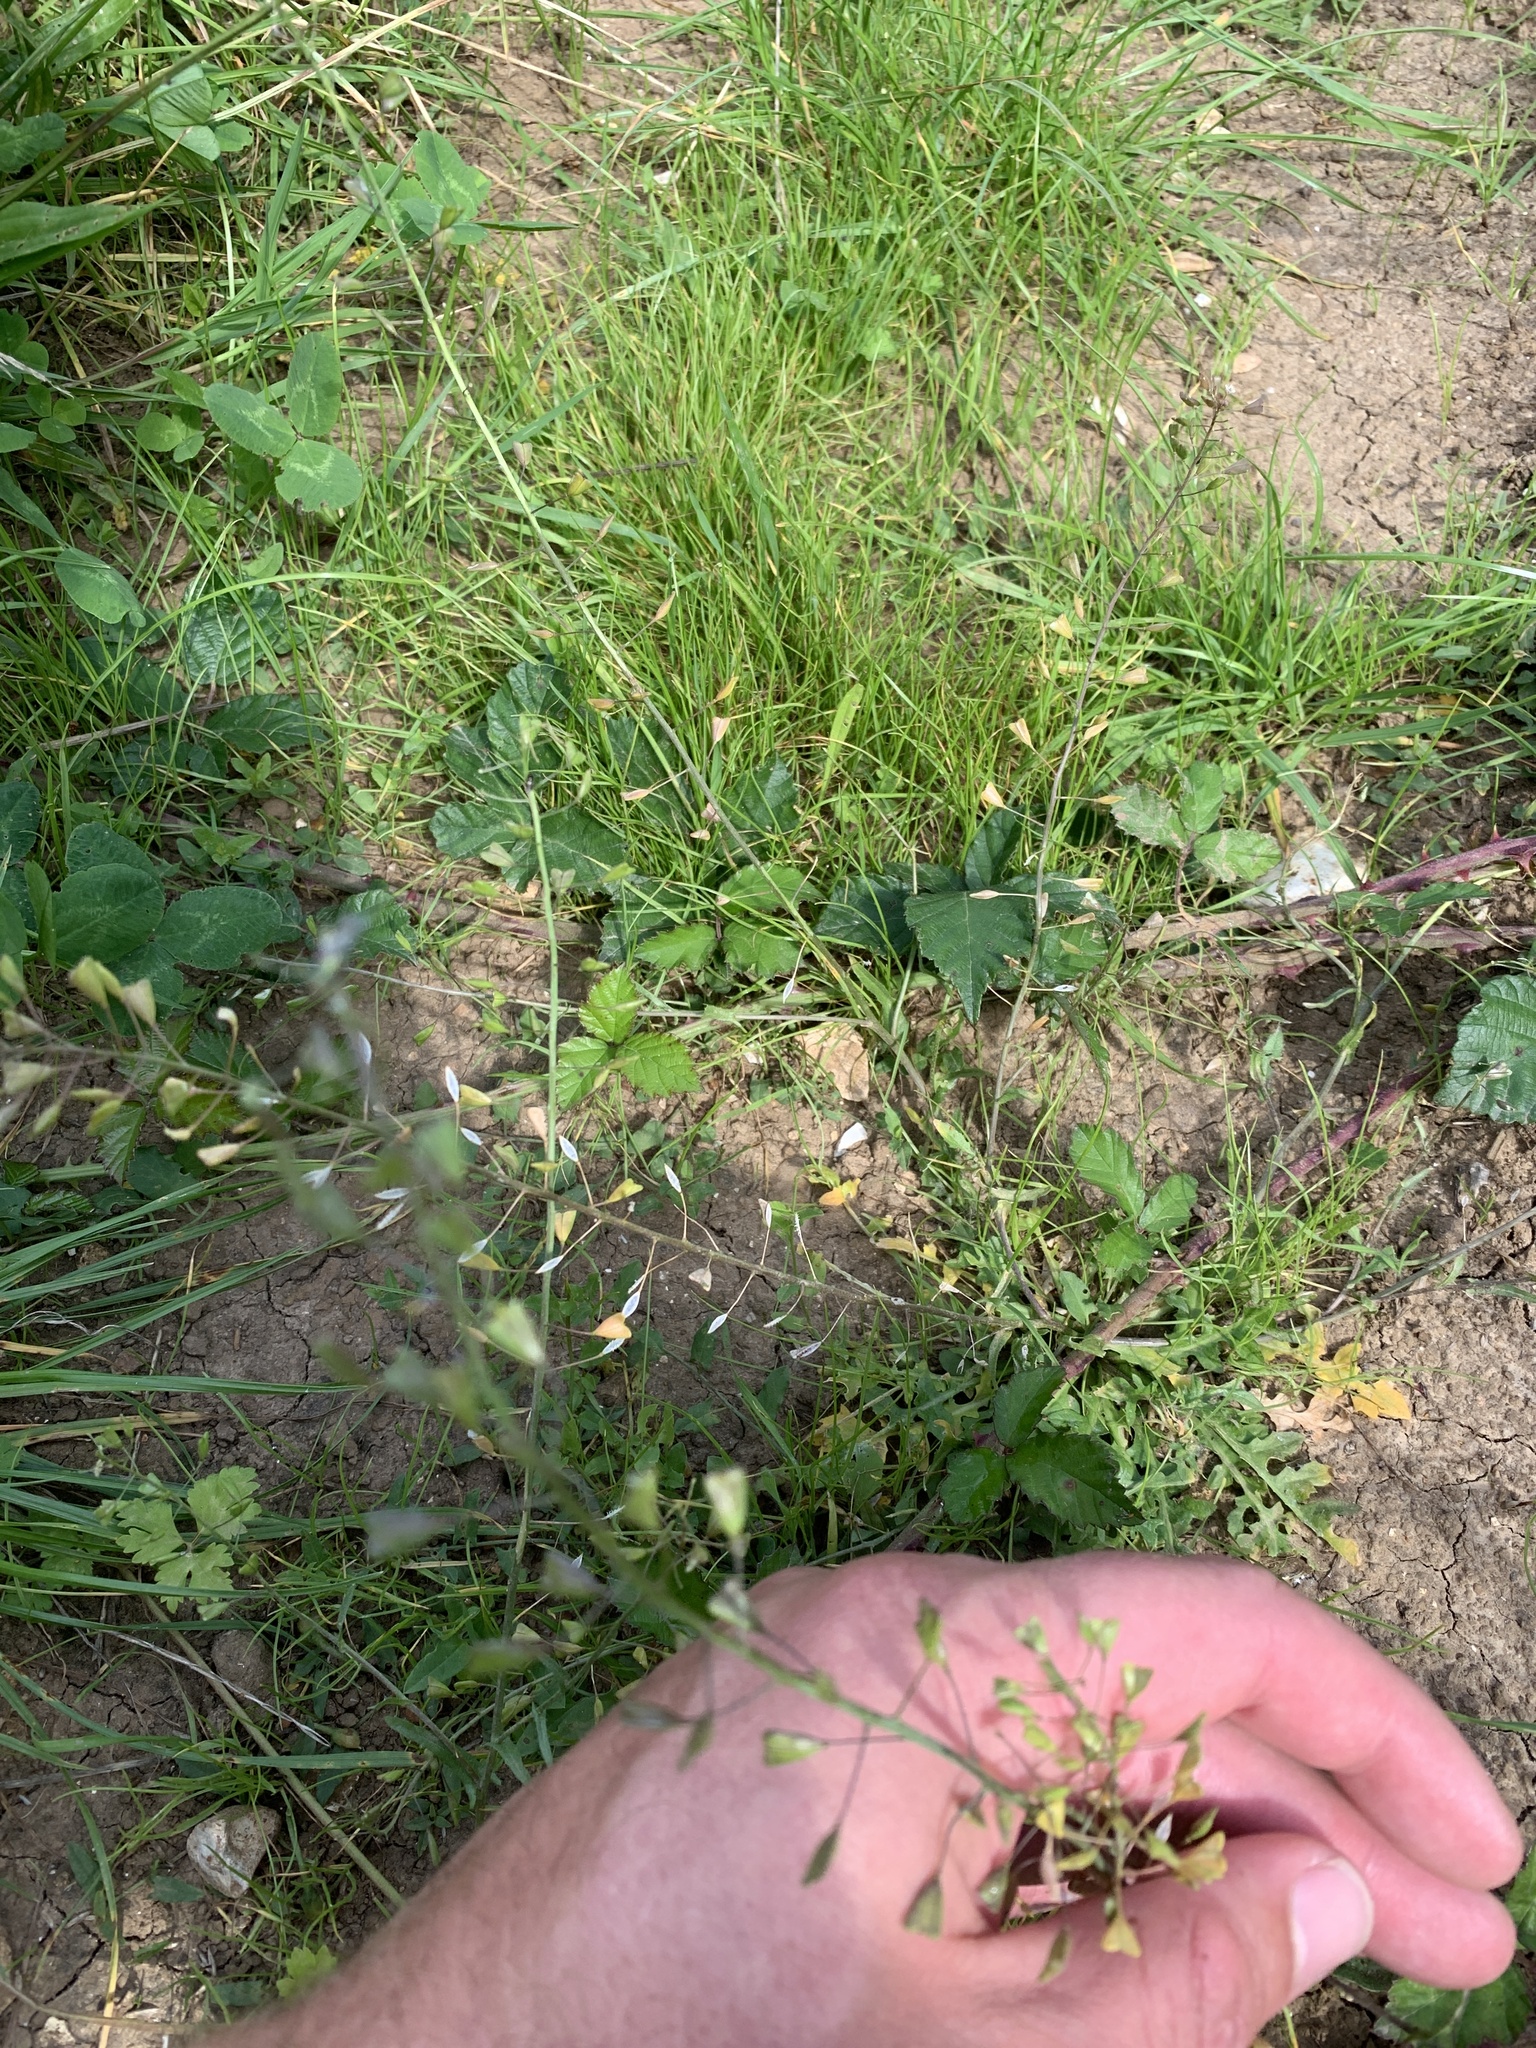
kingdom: Plantae
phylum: Tracheophyta
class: Magnoliopsida
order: Brassicales
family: Brassicaceae
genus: Capsella
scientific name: Capsella bursa-pastoris
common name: Shepherd's purse
